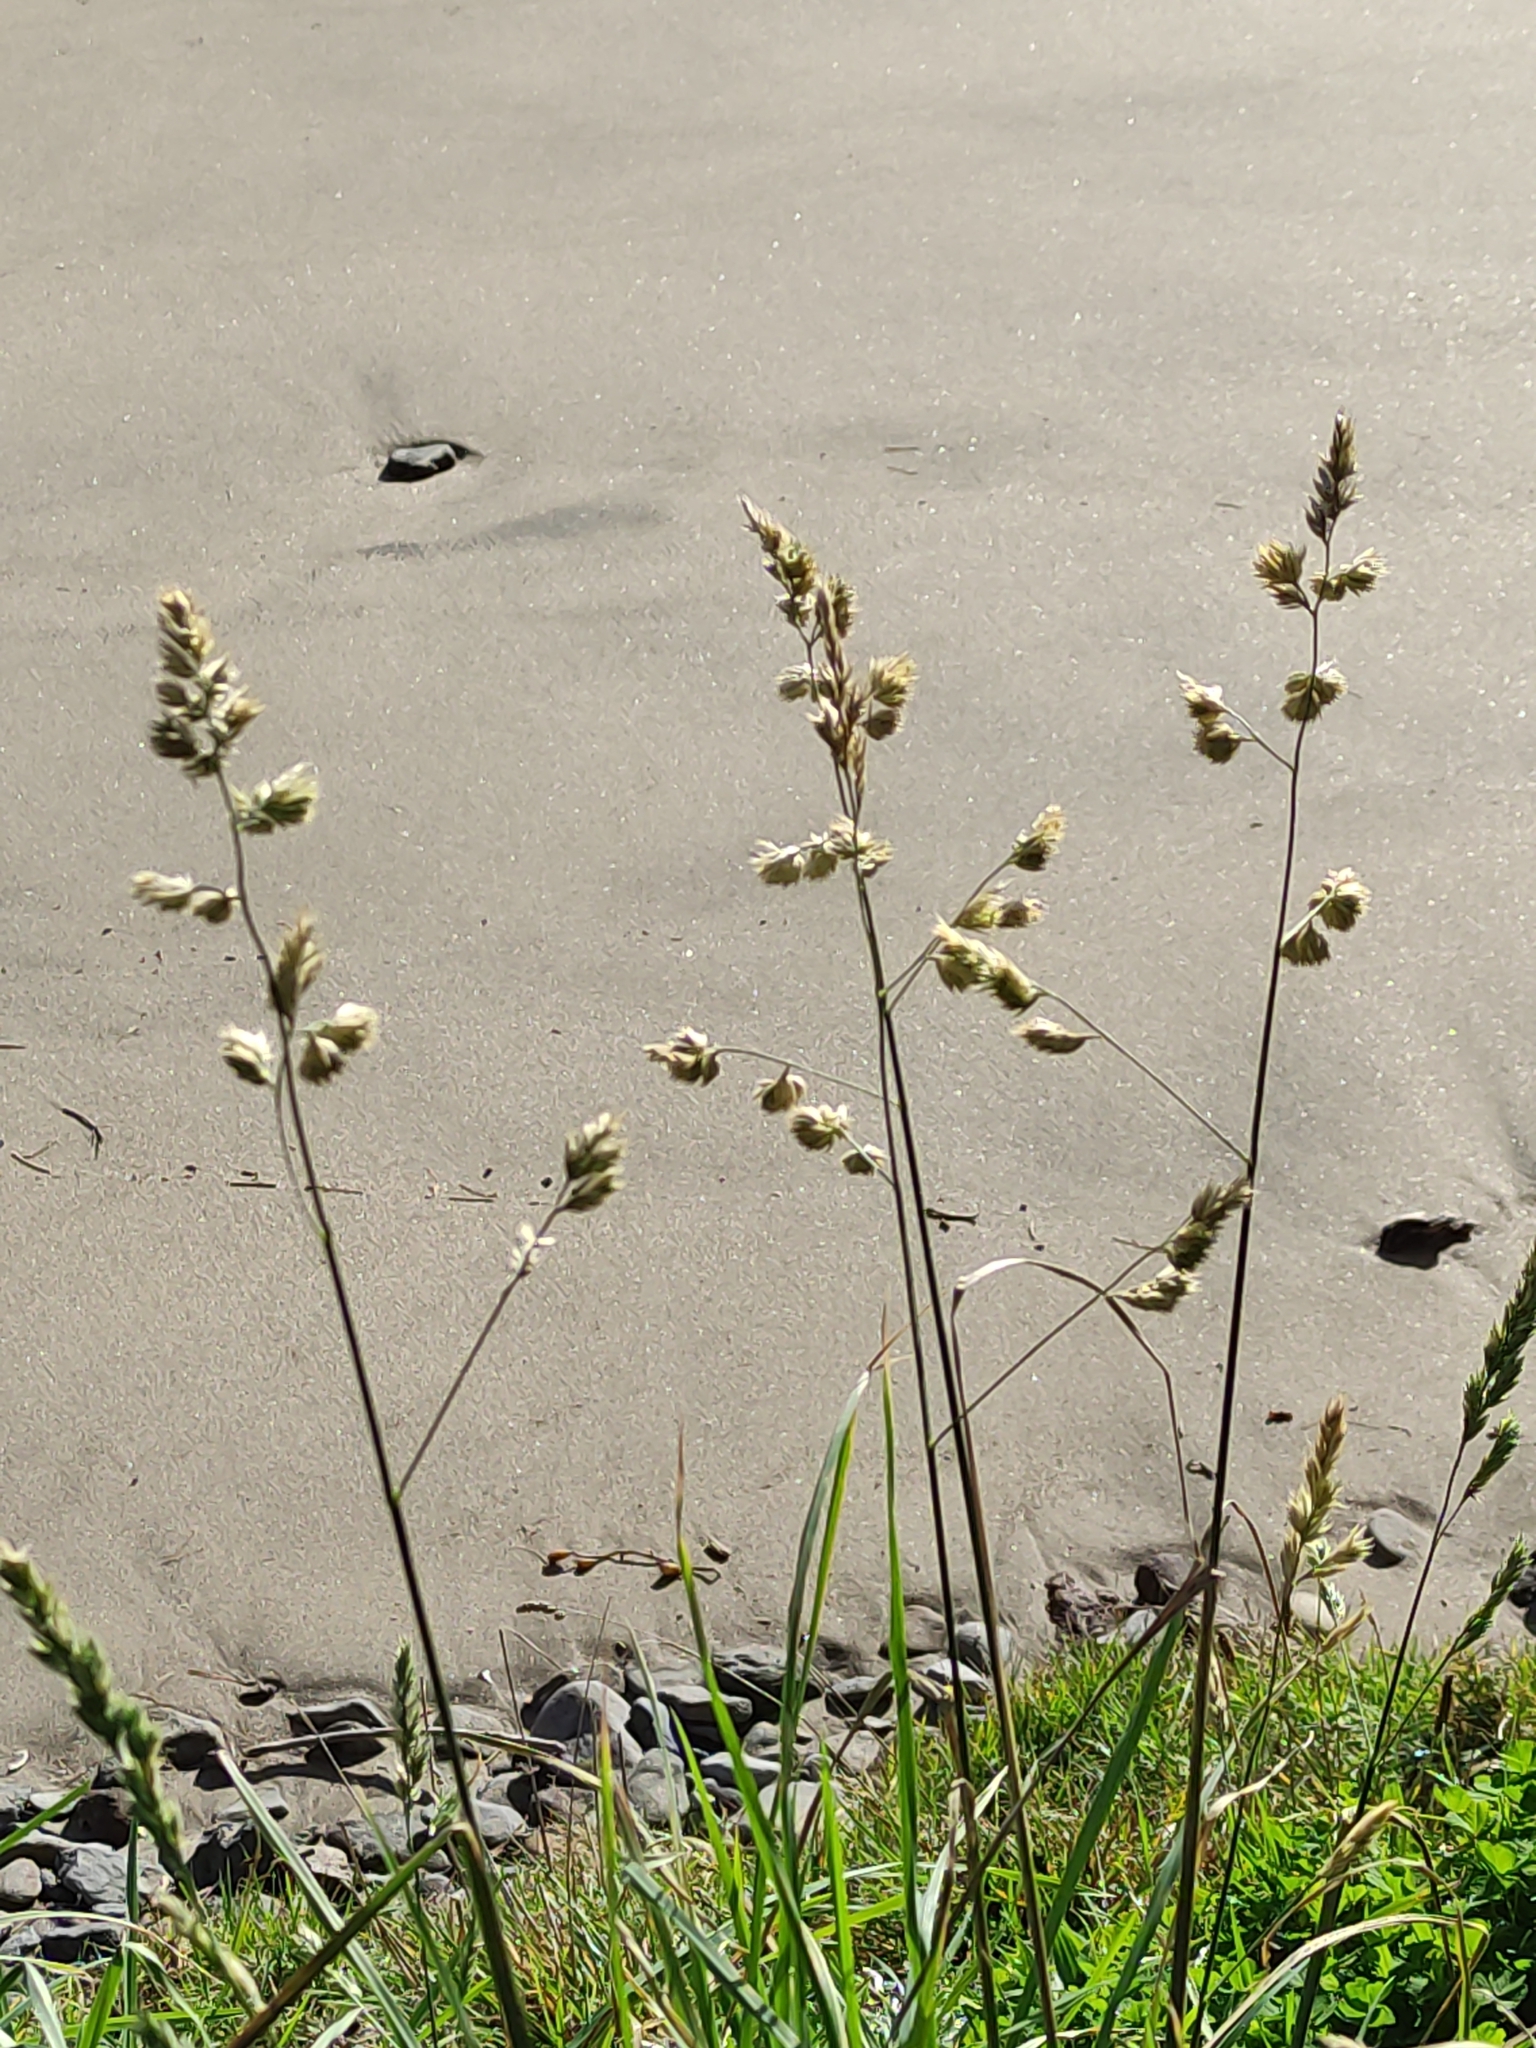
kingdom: Plantae
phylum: Tracheophyta
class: Liliopsida
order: Poales
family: Poaceae
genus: Dactylis
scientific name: Dactylis glomerata
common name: Orchardgrass
